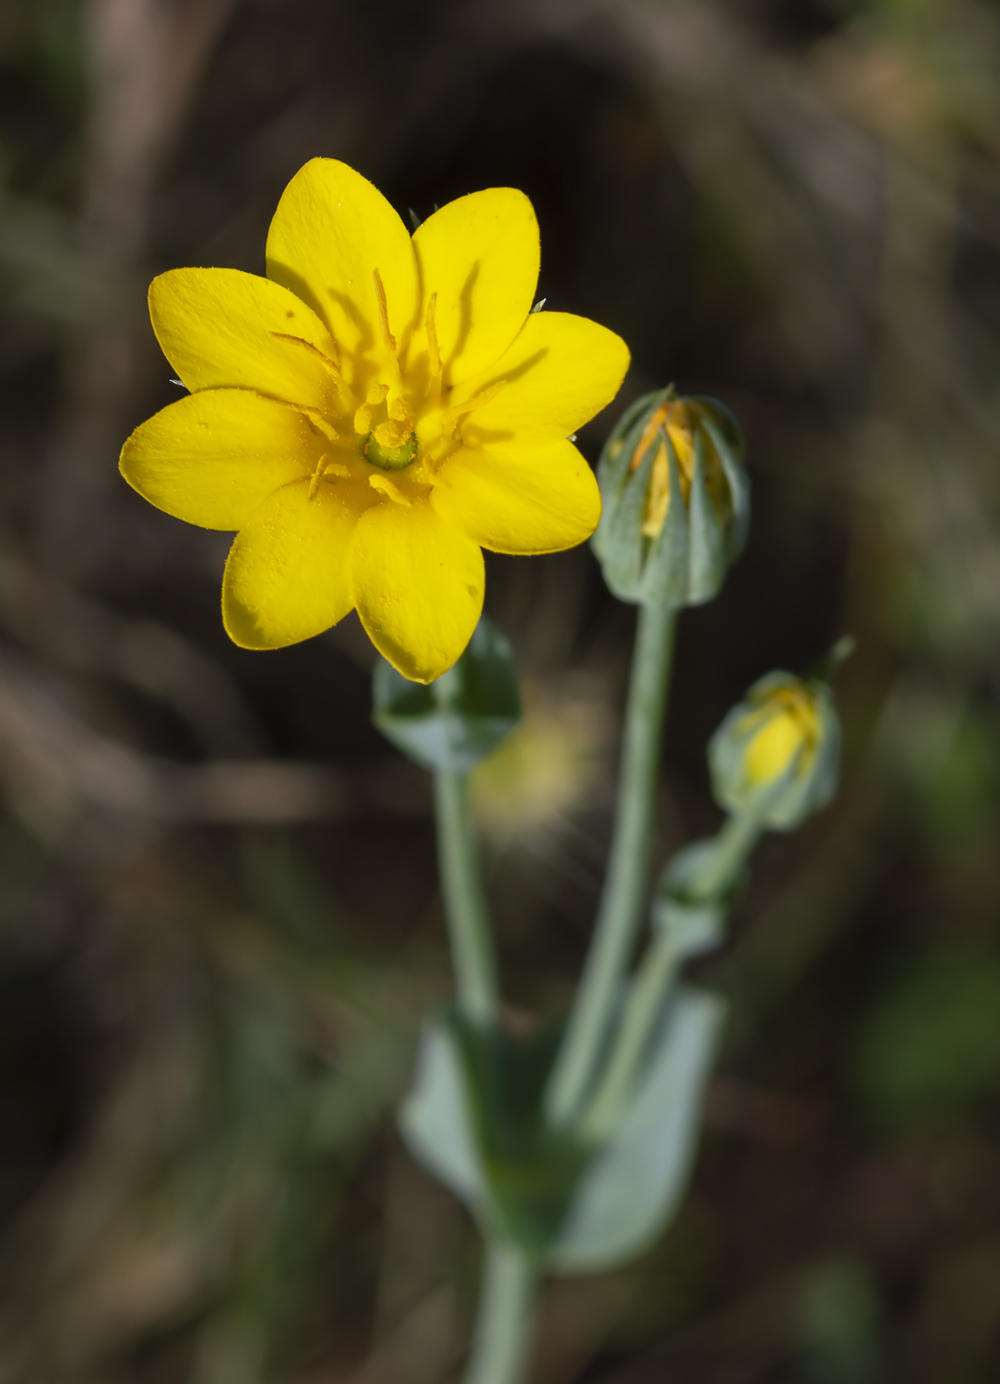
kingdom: Plantae
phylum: Tracheophyta
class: Magnoliopsida
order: Gentianales
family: Gentianaceae
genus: Blackstonia
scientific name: Blackstonia acuminata
